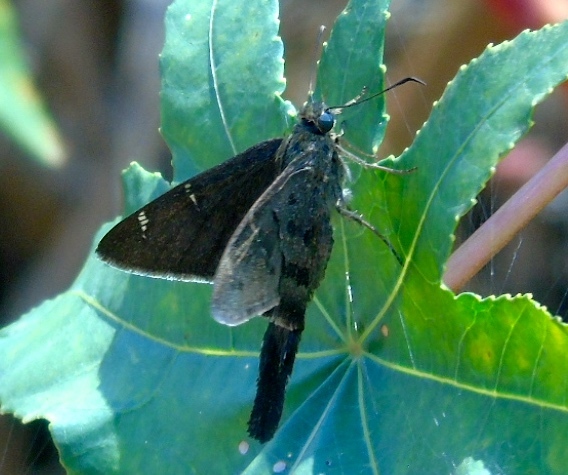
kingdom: Animalia
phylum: Arthropoda
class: Insecta
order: Lepidoptera
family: Hesperiidae
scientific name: Hesperiidae
